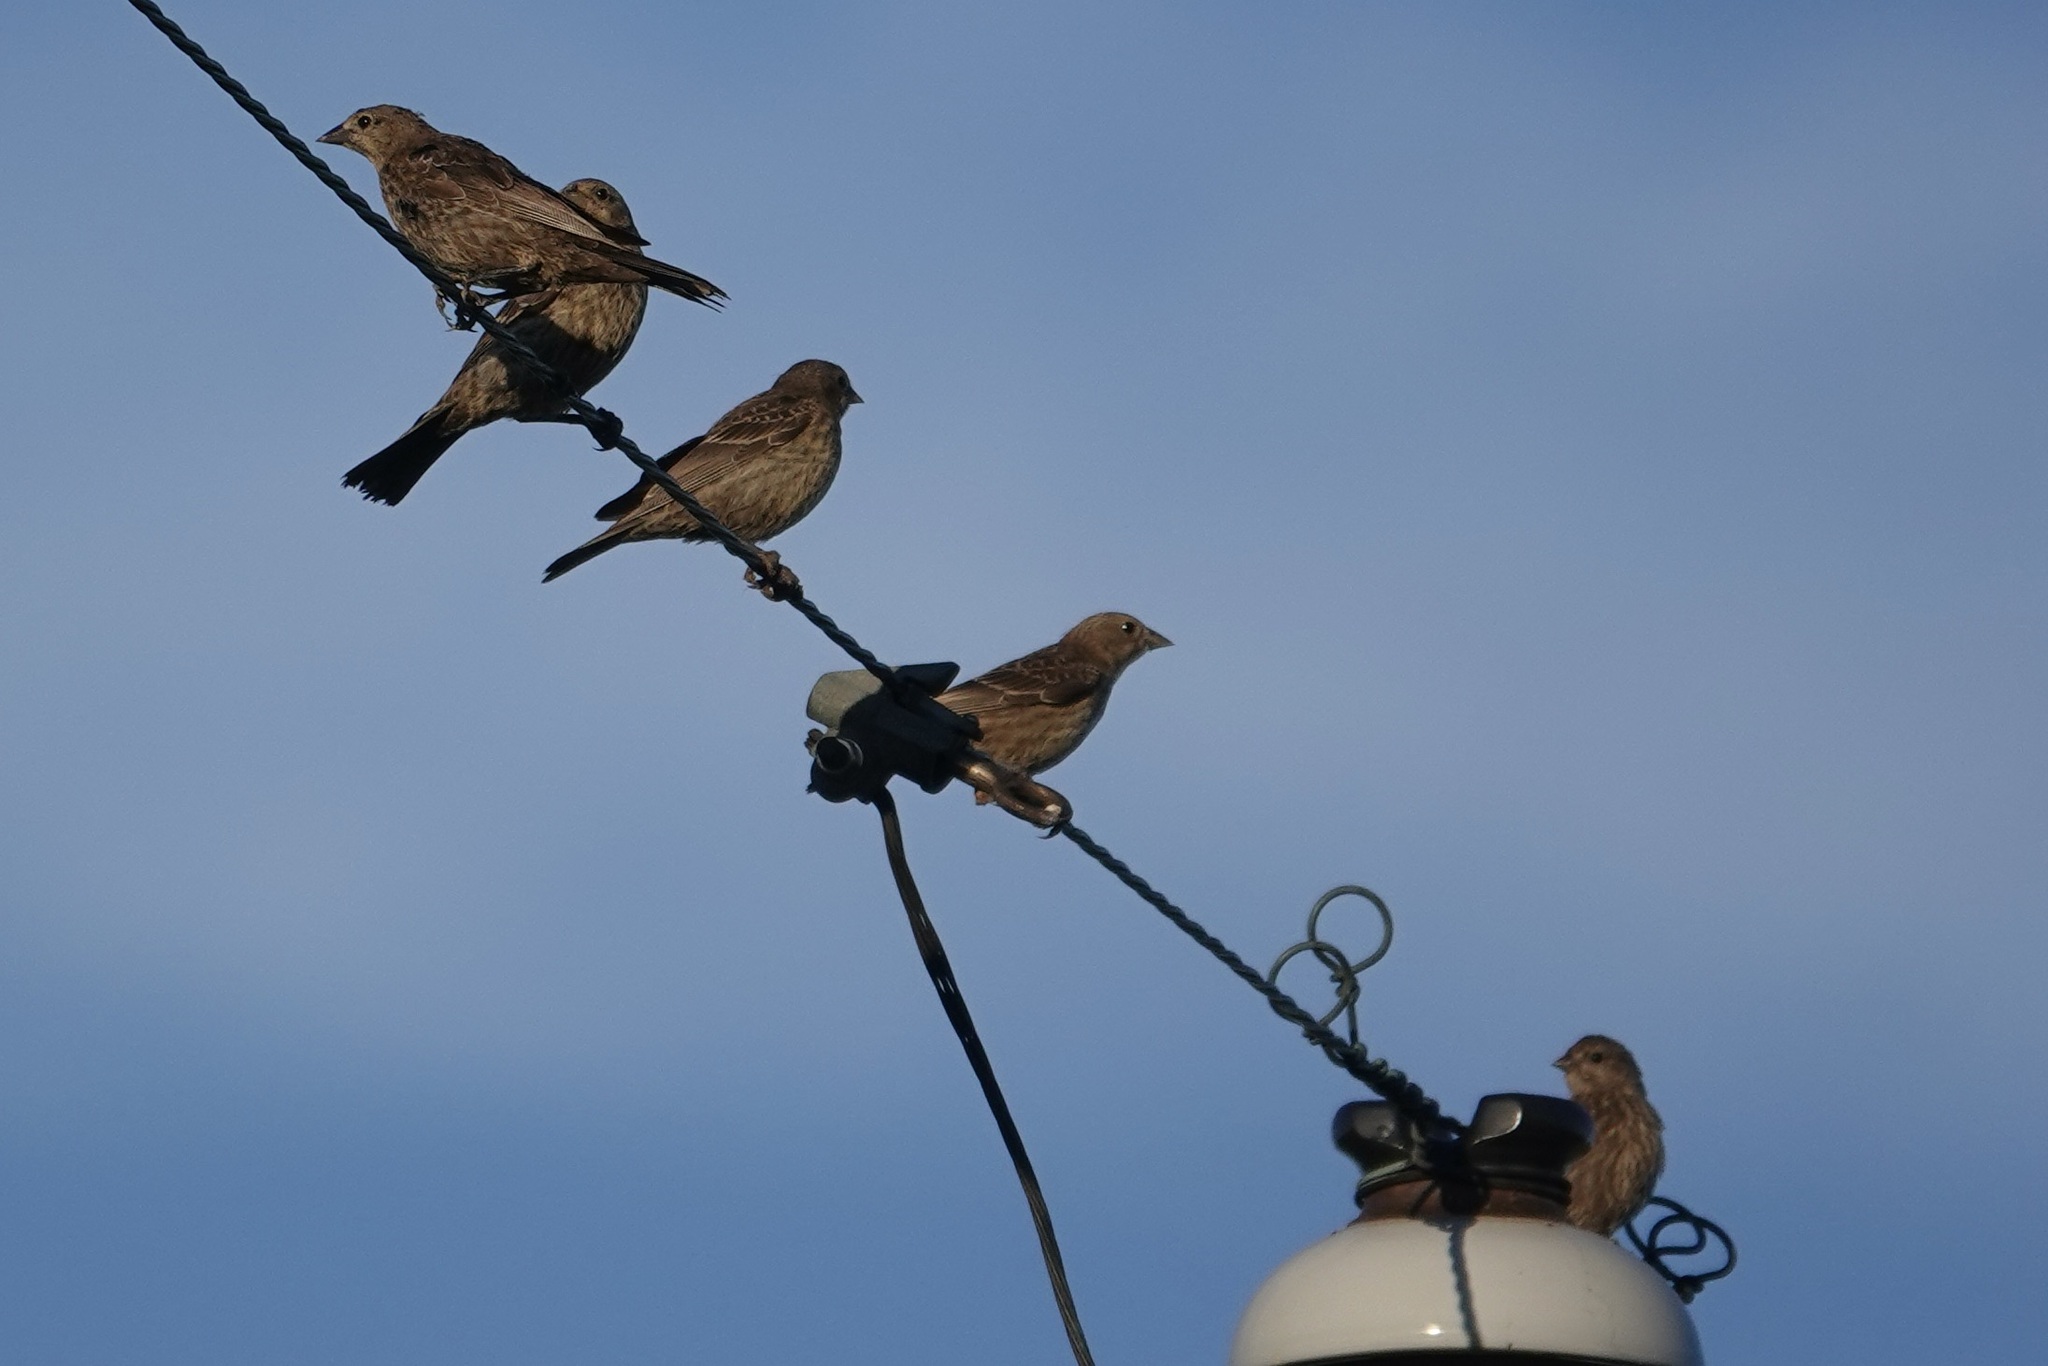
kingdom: Animalia
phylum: Chordata
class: Aves
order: Passeriformes
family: Icteridae
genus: Molothrus
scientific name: Molothrus ater
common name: Brown-headed cowbird
